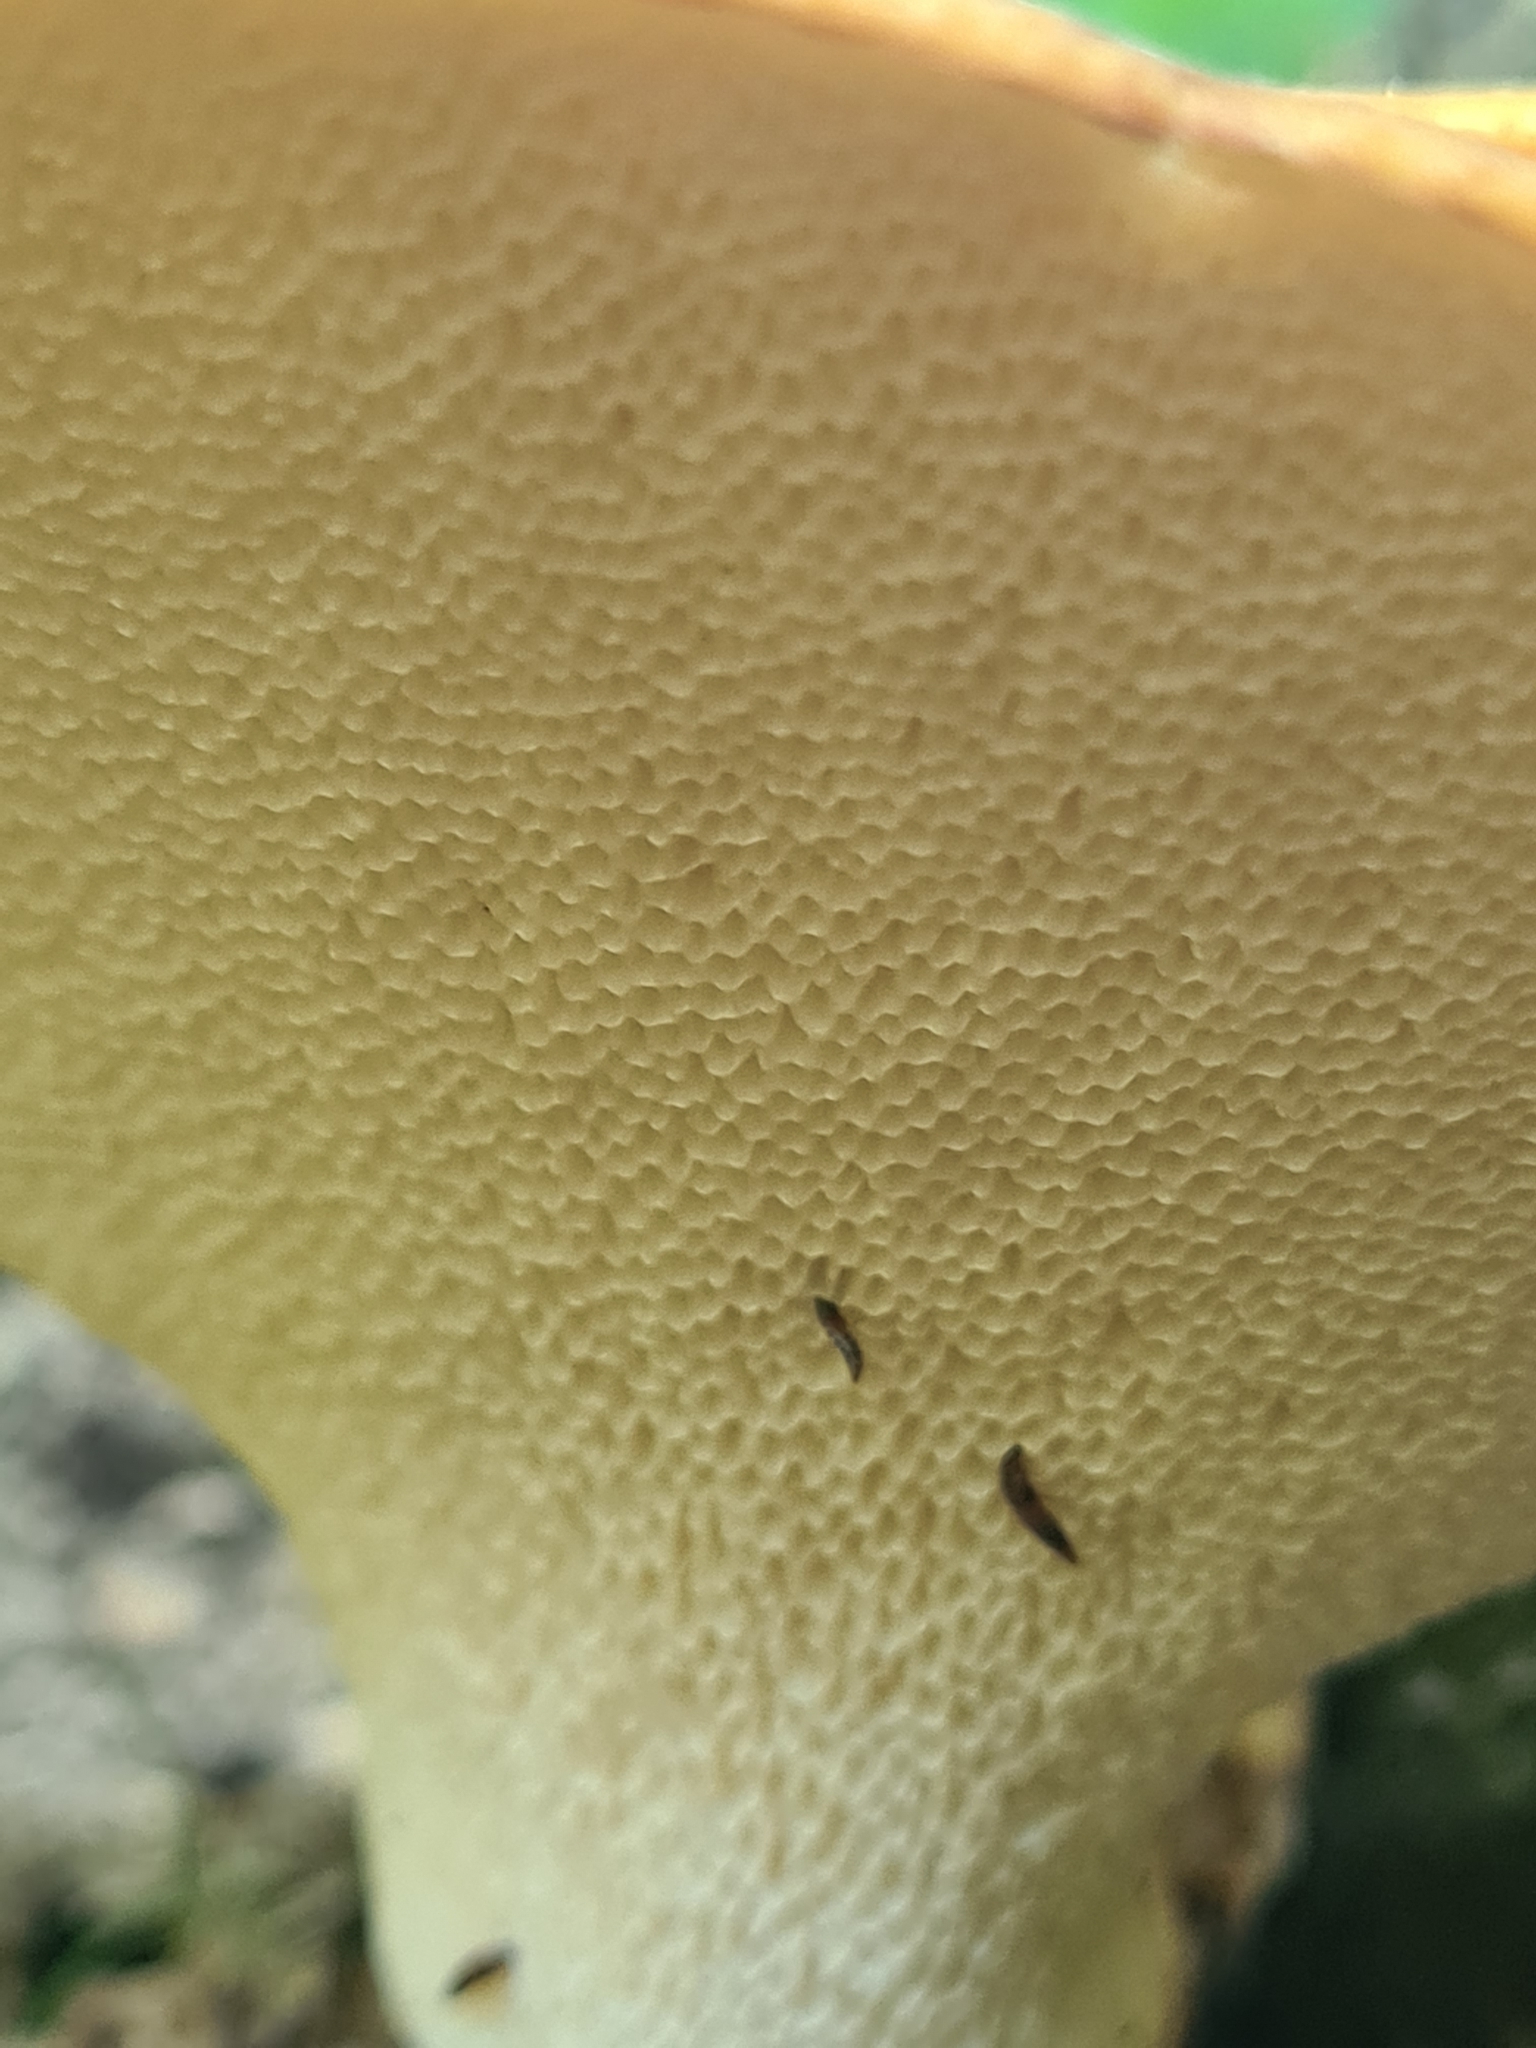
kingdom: Fungi
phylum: Basidiomycota
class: Agaricomycetes
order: Polyporales
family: Polyporaceae
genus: Cerioporus
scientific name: Cerioporus squamosus
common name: Dryad's saddle
